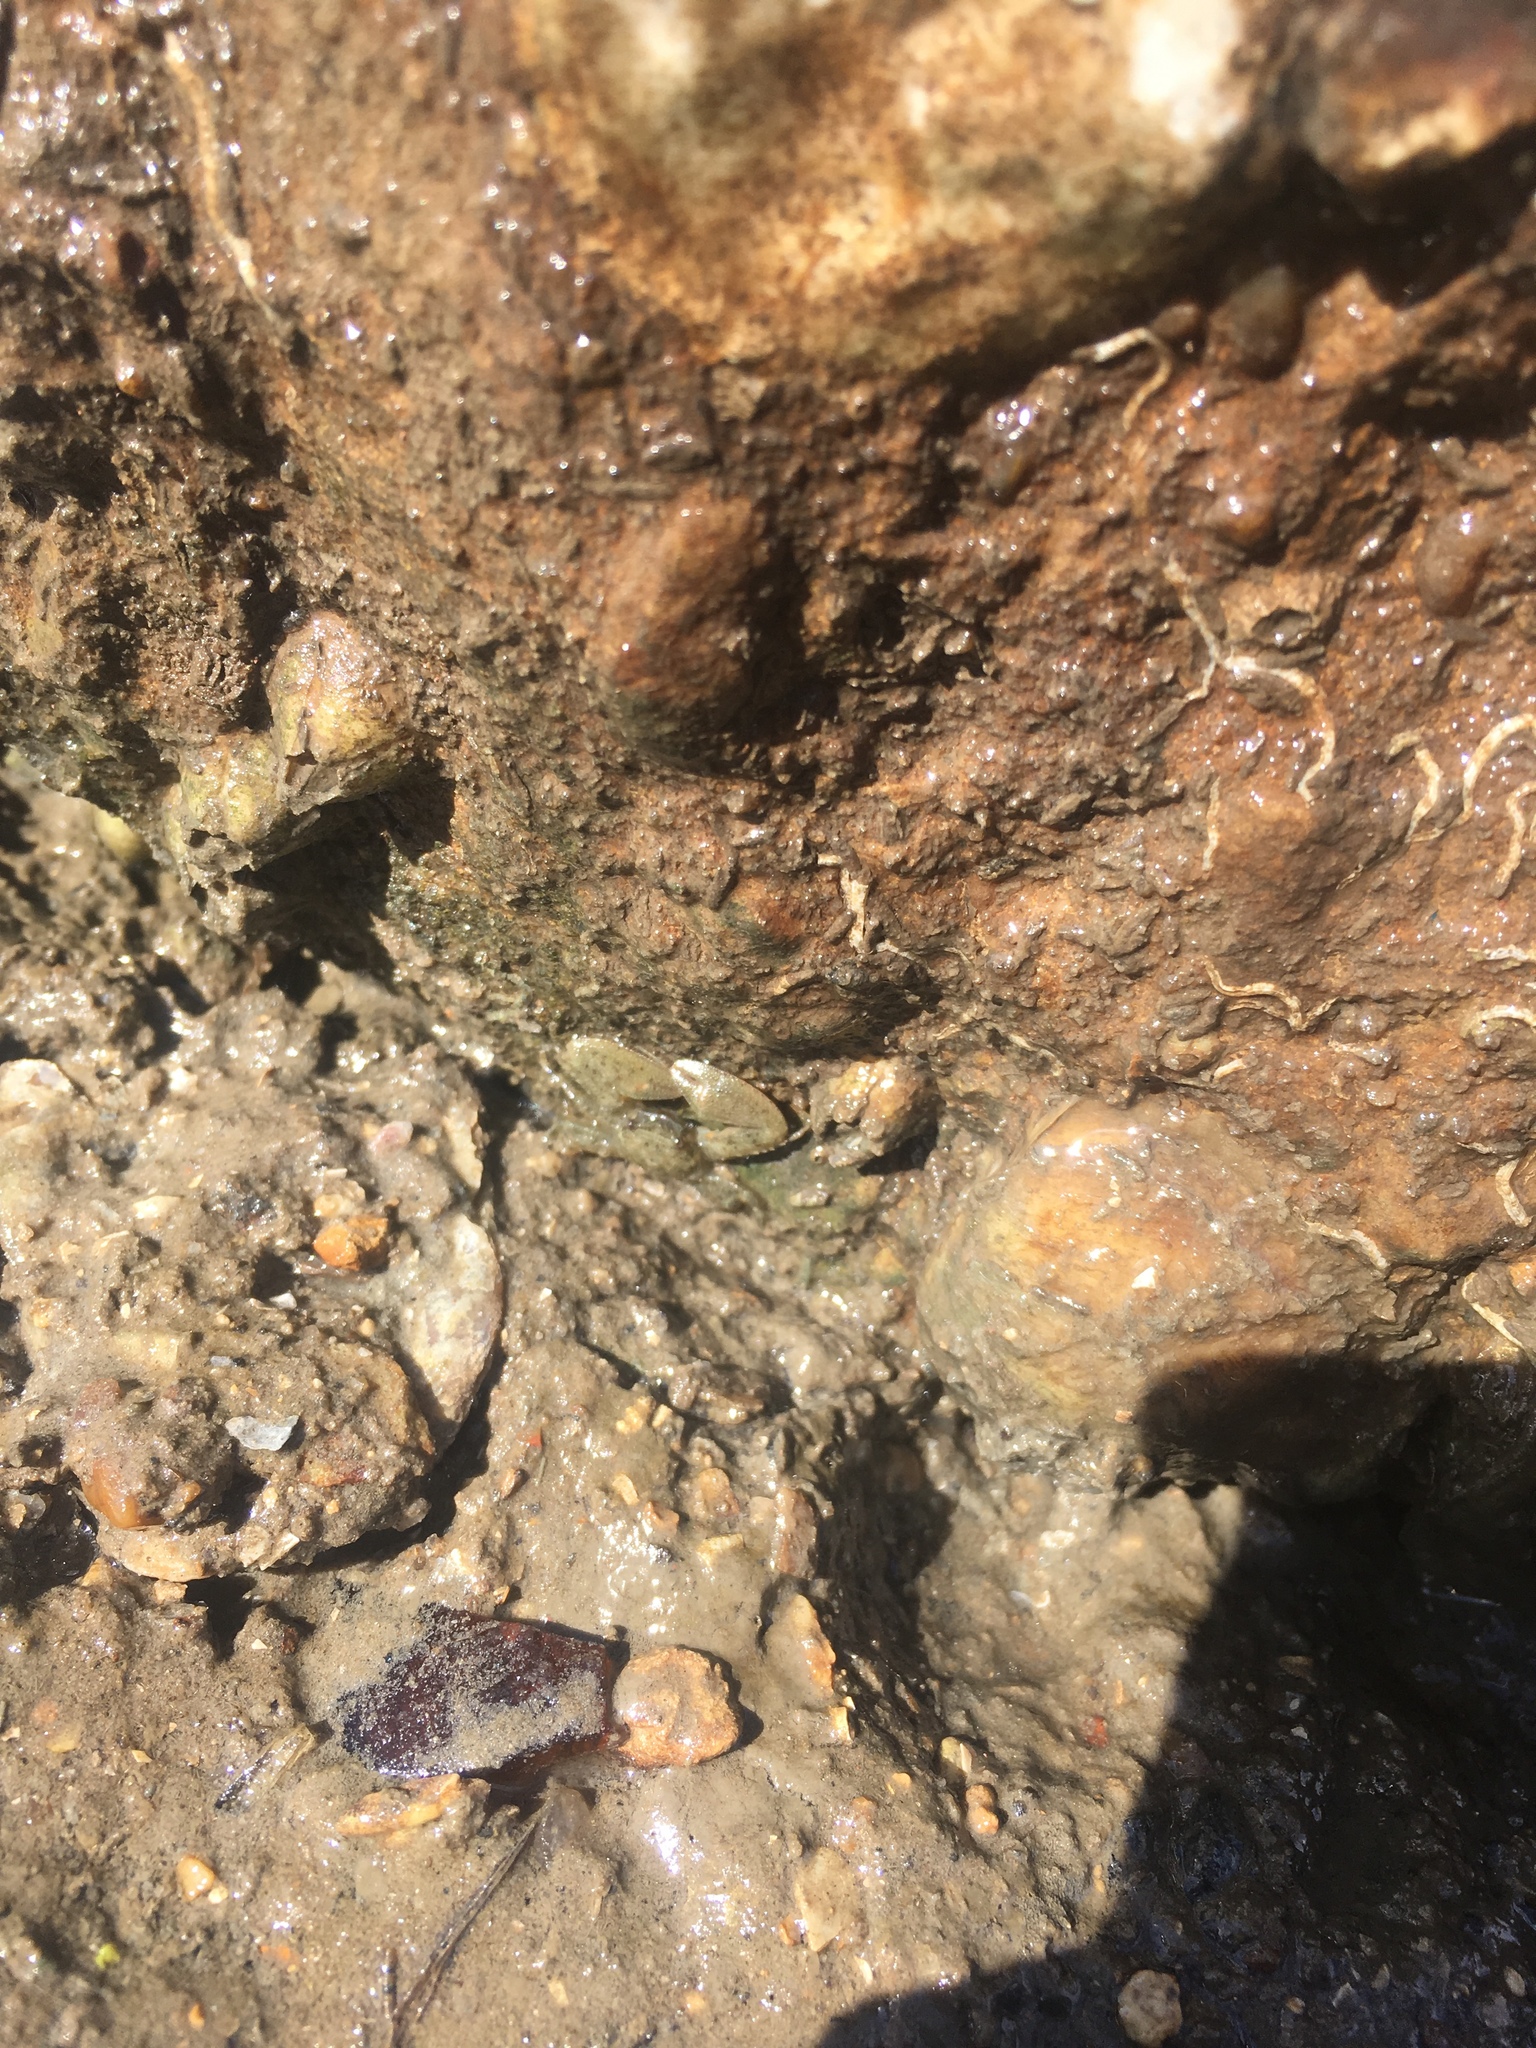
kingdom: Animalia
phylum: Arthropoda
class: Malacostraca
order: Decapoda
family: Porcellanidae
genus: Petrolisthes
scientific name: Petrolisthes armatus
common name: Green porcelain crab
